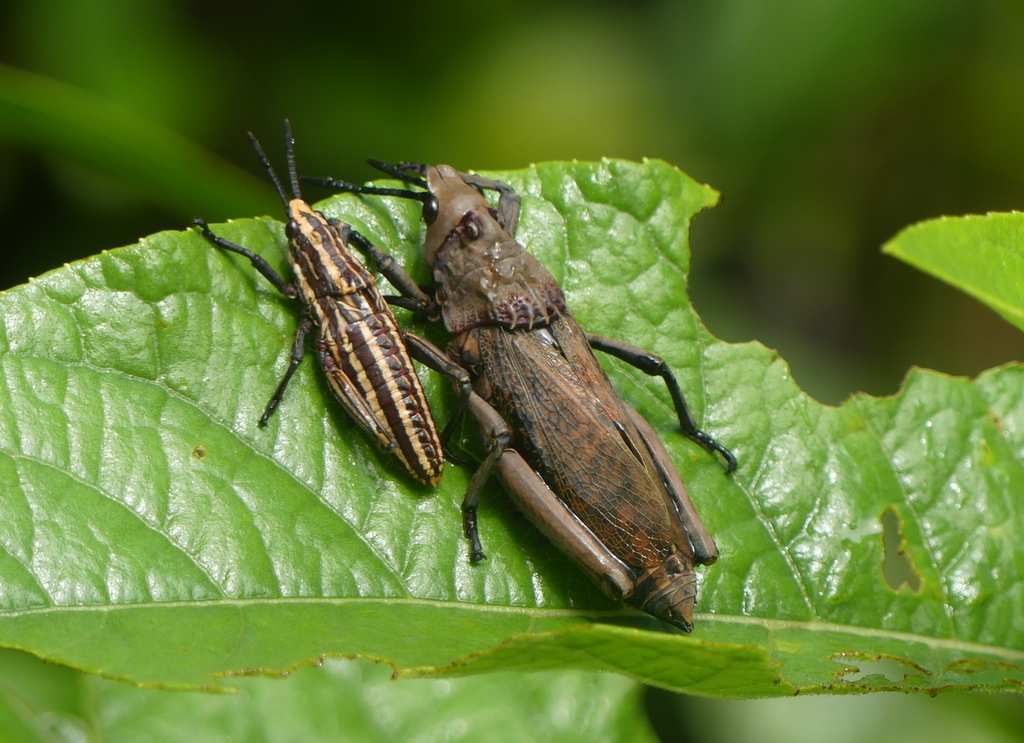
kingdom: Animalia
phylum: Arthropoda
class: Insecta
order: Orthoptera
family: Pyrgomorphidae
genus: Dictyophorus
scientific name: Dictyophorus griseus
